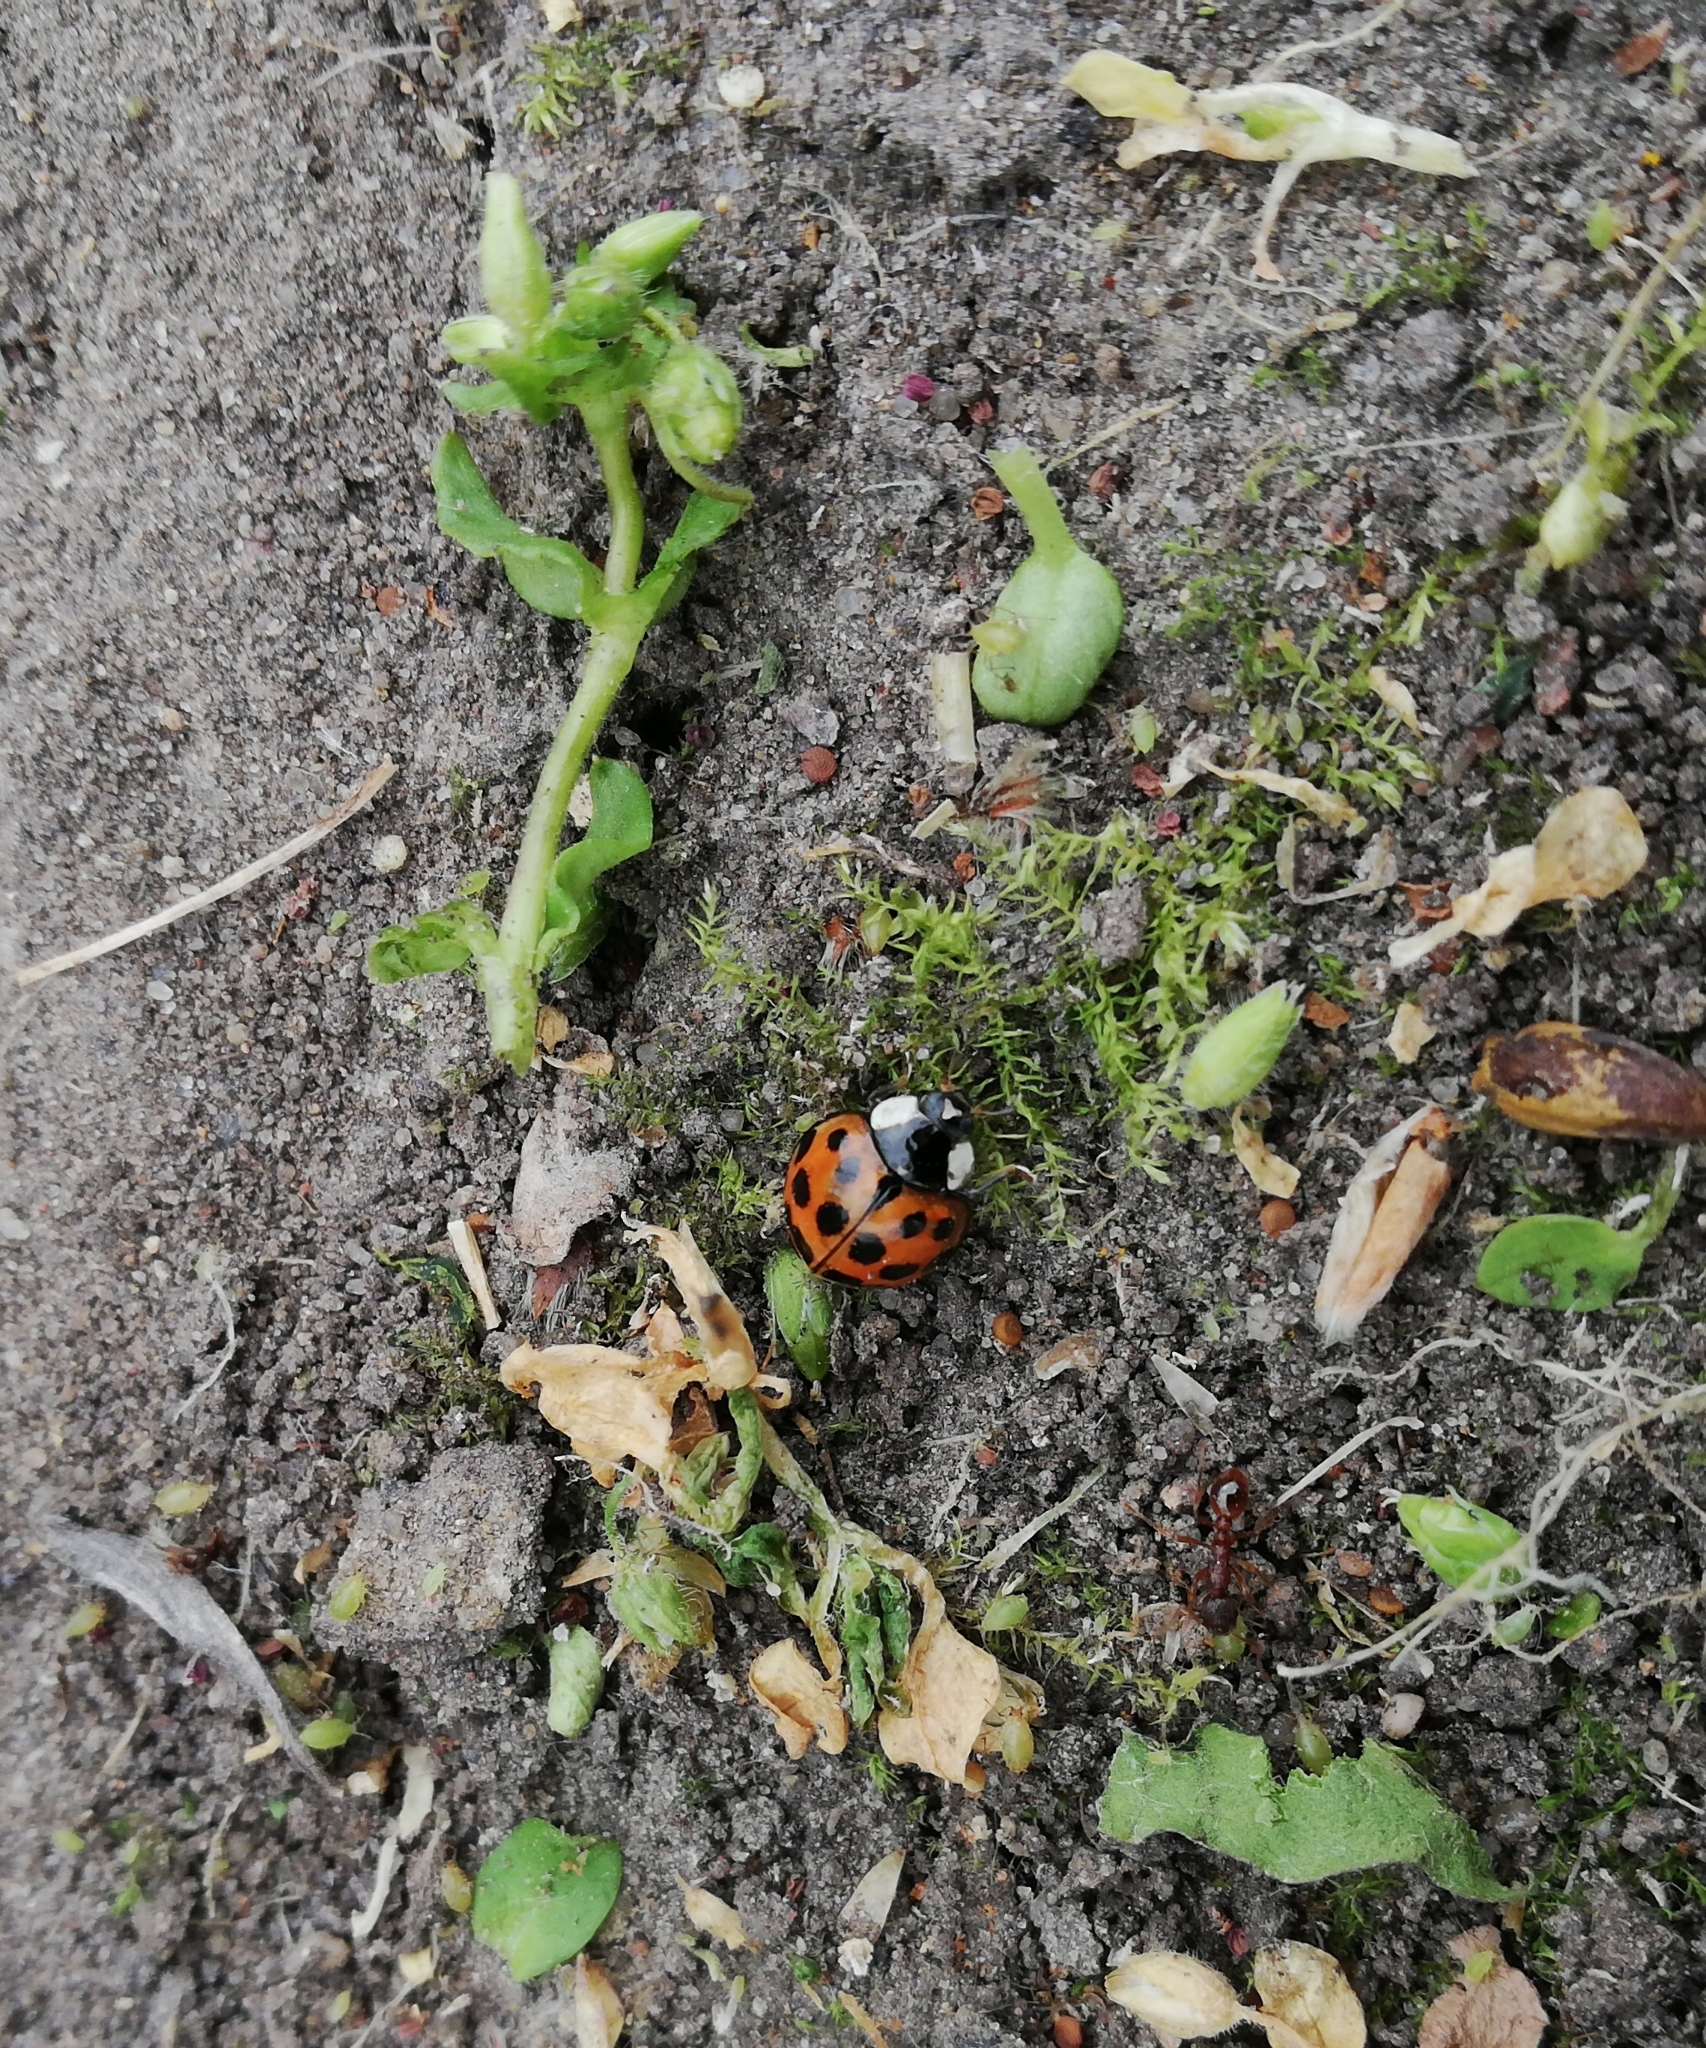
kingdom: Animalia
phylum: Arthropoda
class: Insecta
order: Coleoptera
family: Coccinellidae
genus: Harmonia
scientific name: Harmonia axyridis
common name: Harlequin ladybird
